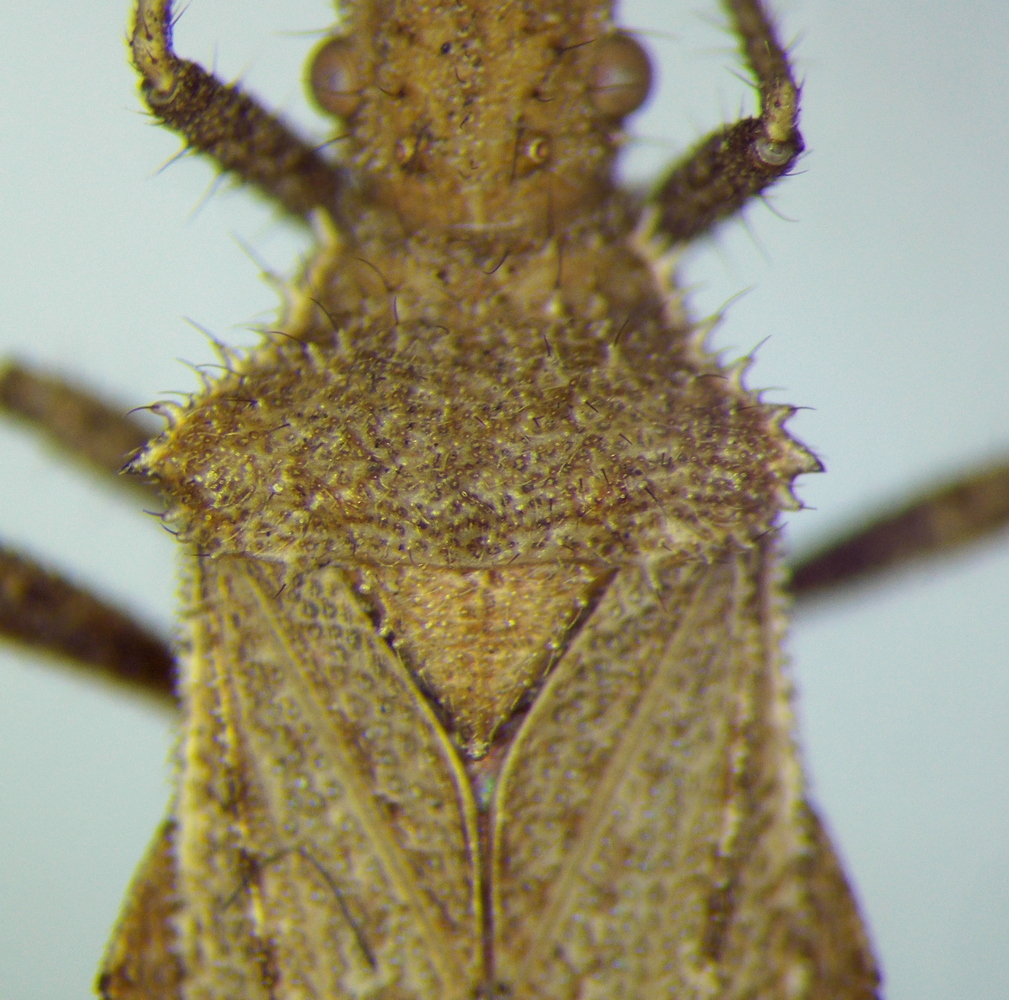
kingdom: Animalia
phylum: Arthropoda
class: Insecta
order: Hemiptera
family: Coreidae
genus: Coriomeris
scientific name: Coriomeris nigricornis
